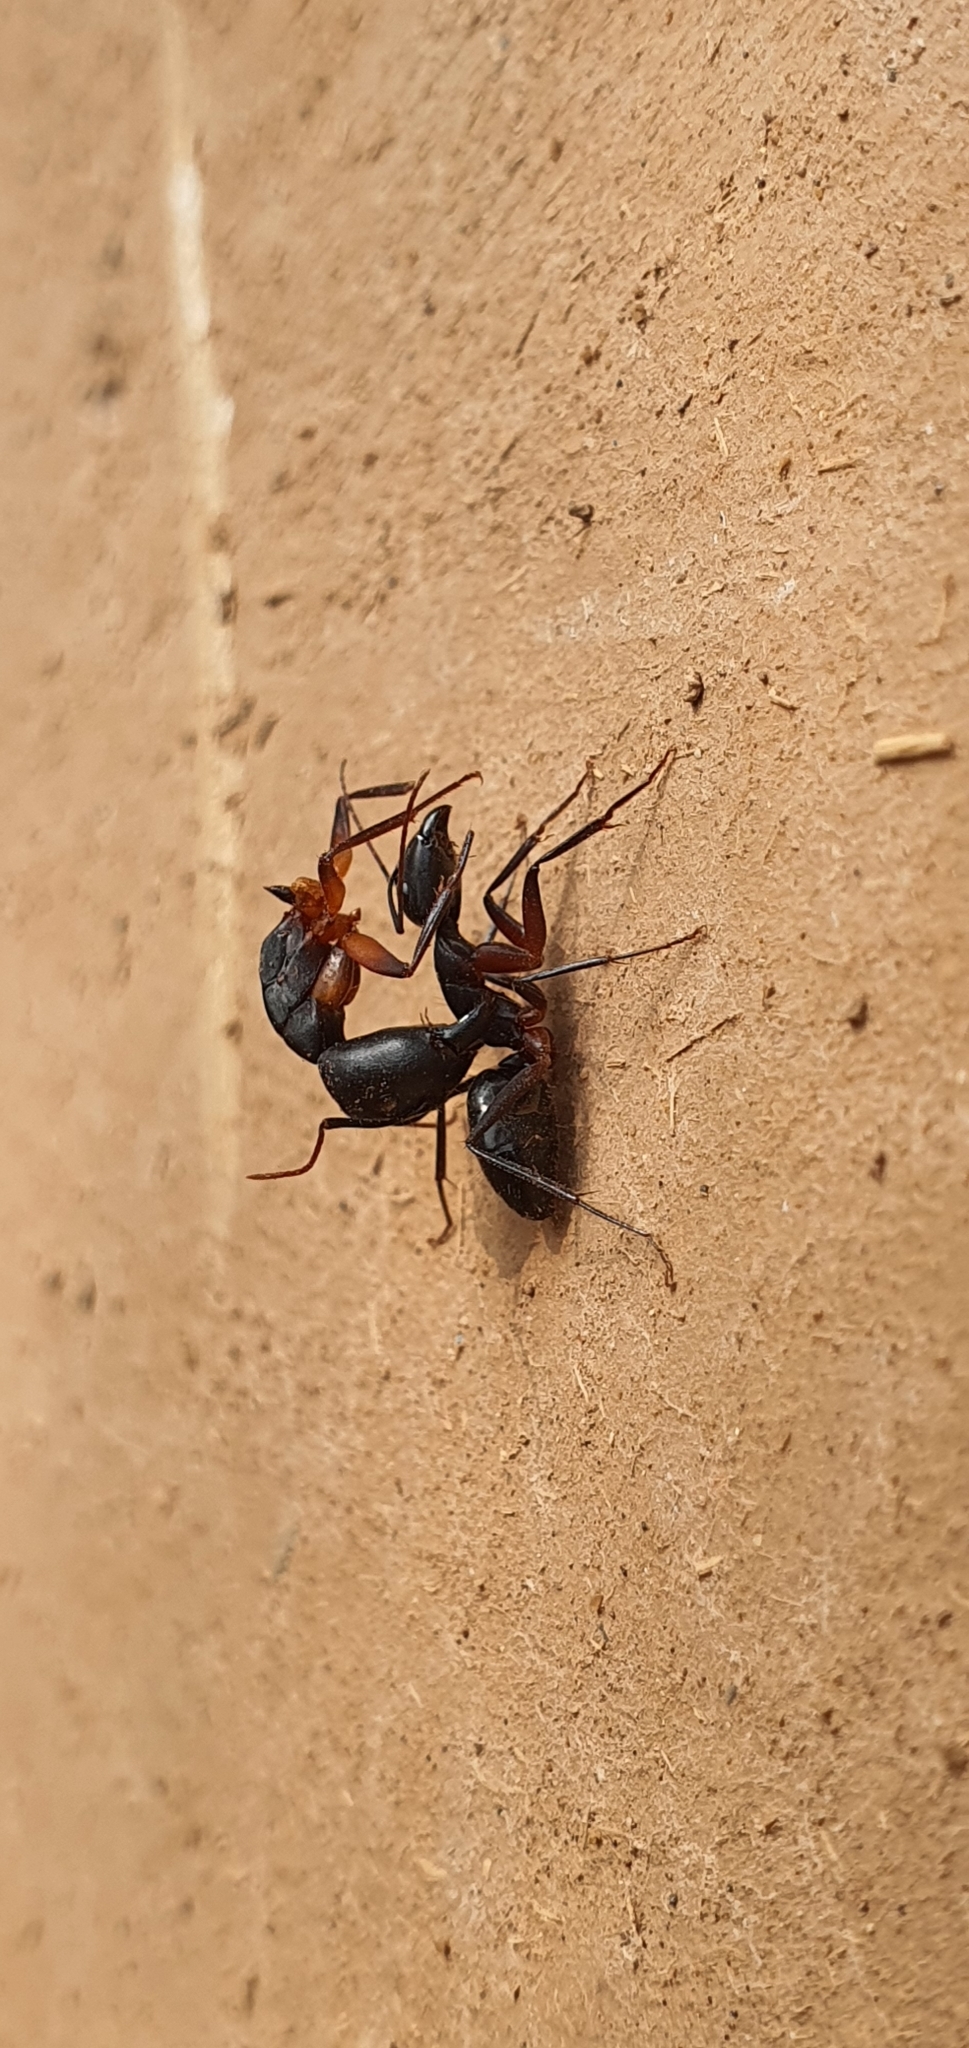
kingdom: Animalia
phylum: Arthropoda
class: Insecta
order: Hymenoptera
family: Formicidae
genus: Camponotus
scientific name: Camponotus compressus
